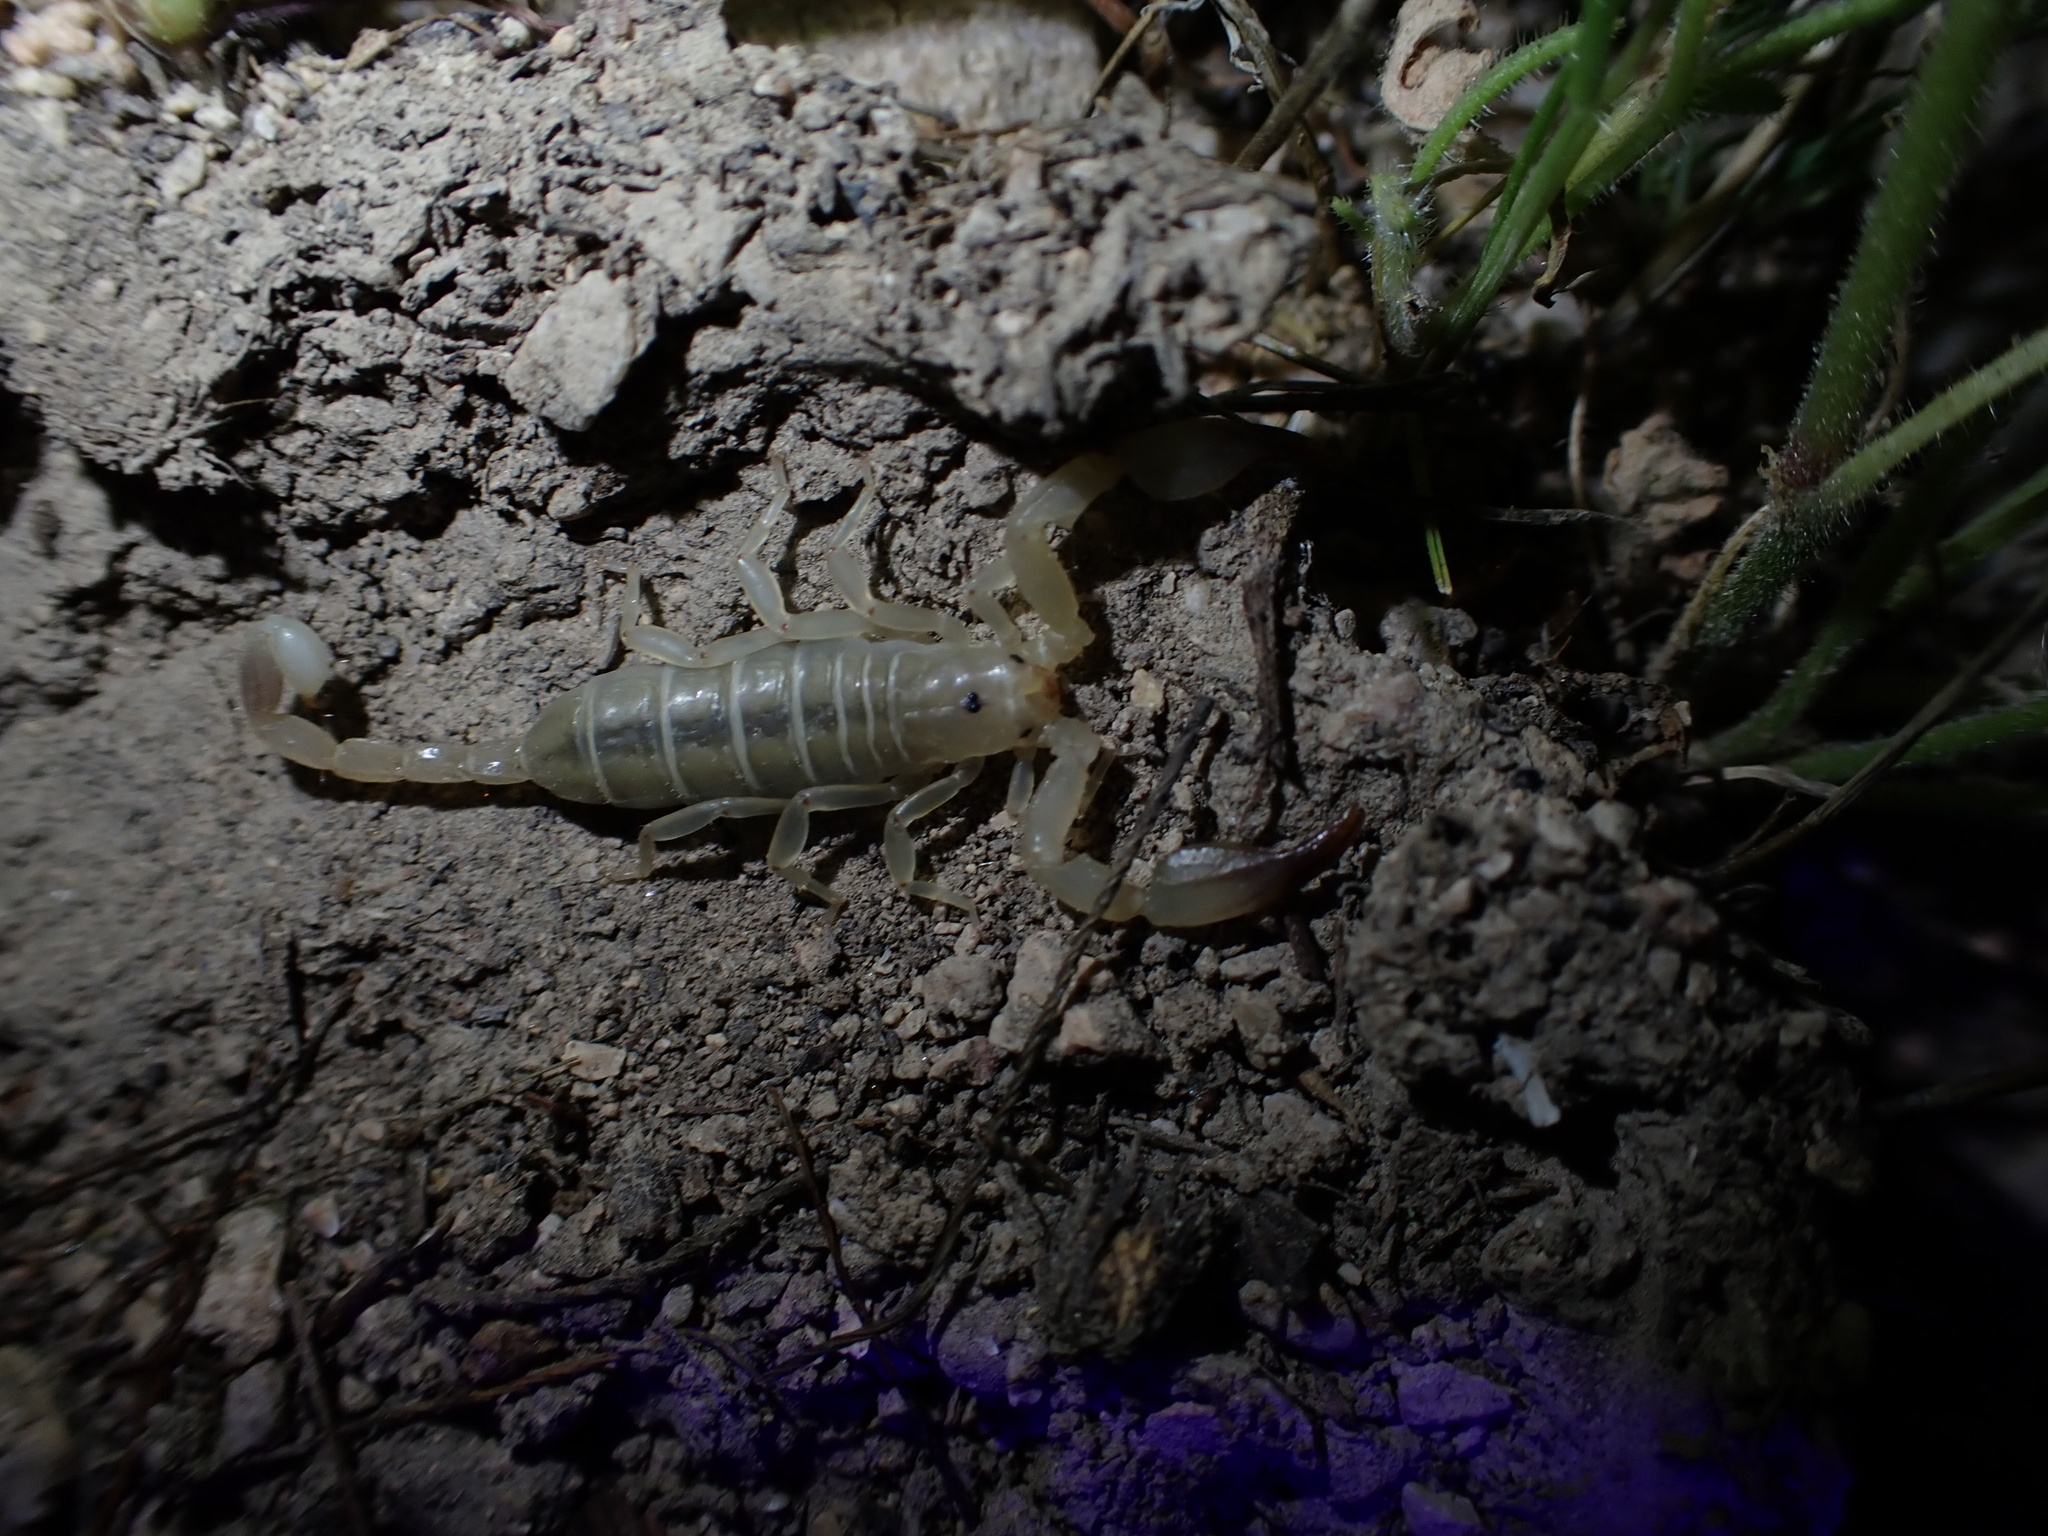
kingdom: Animalia
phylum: Arthropoda
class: Arachnida
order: Scorpiones
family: Hemiscorpiidae
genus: Hemiscorpius
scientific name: Hemiscorpius acanthocercus
